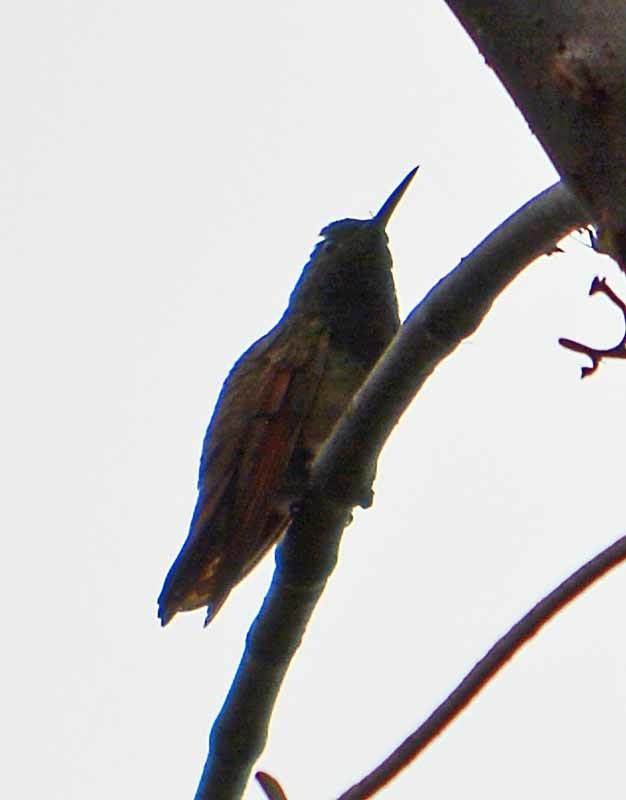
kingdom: Animalia
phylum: Chordata
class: Aves
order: Apodiformes
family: Trochilidae
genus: Saucerottia
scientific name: Saucerottia beryllina
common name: Berylline hummingbird
